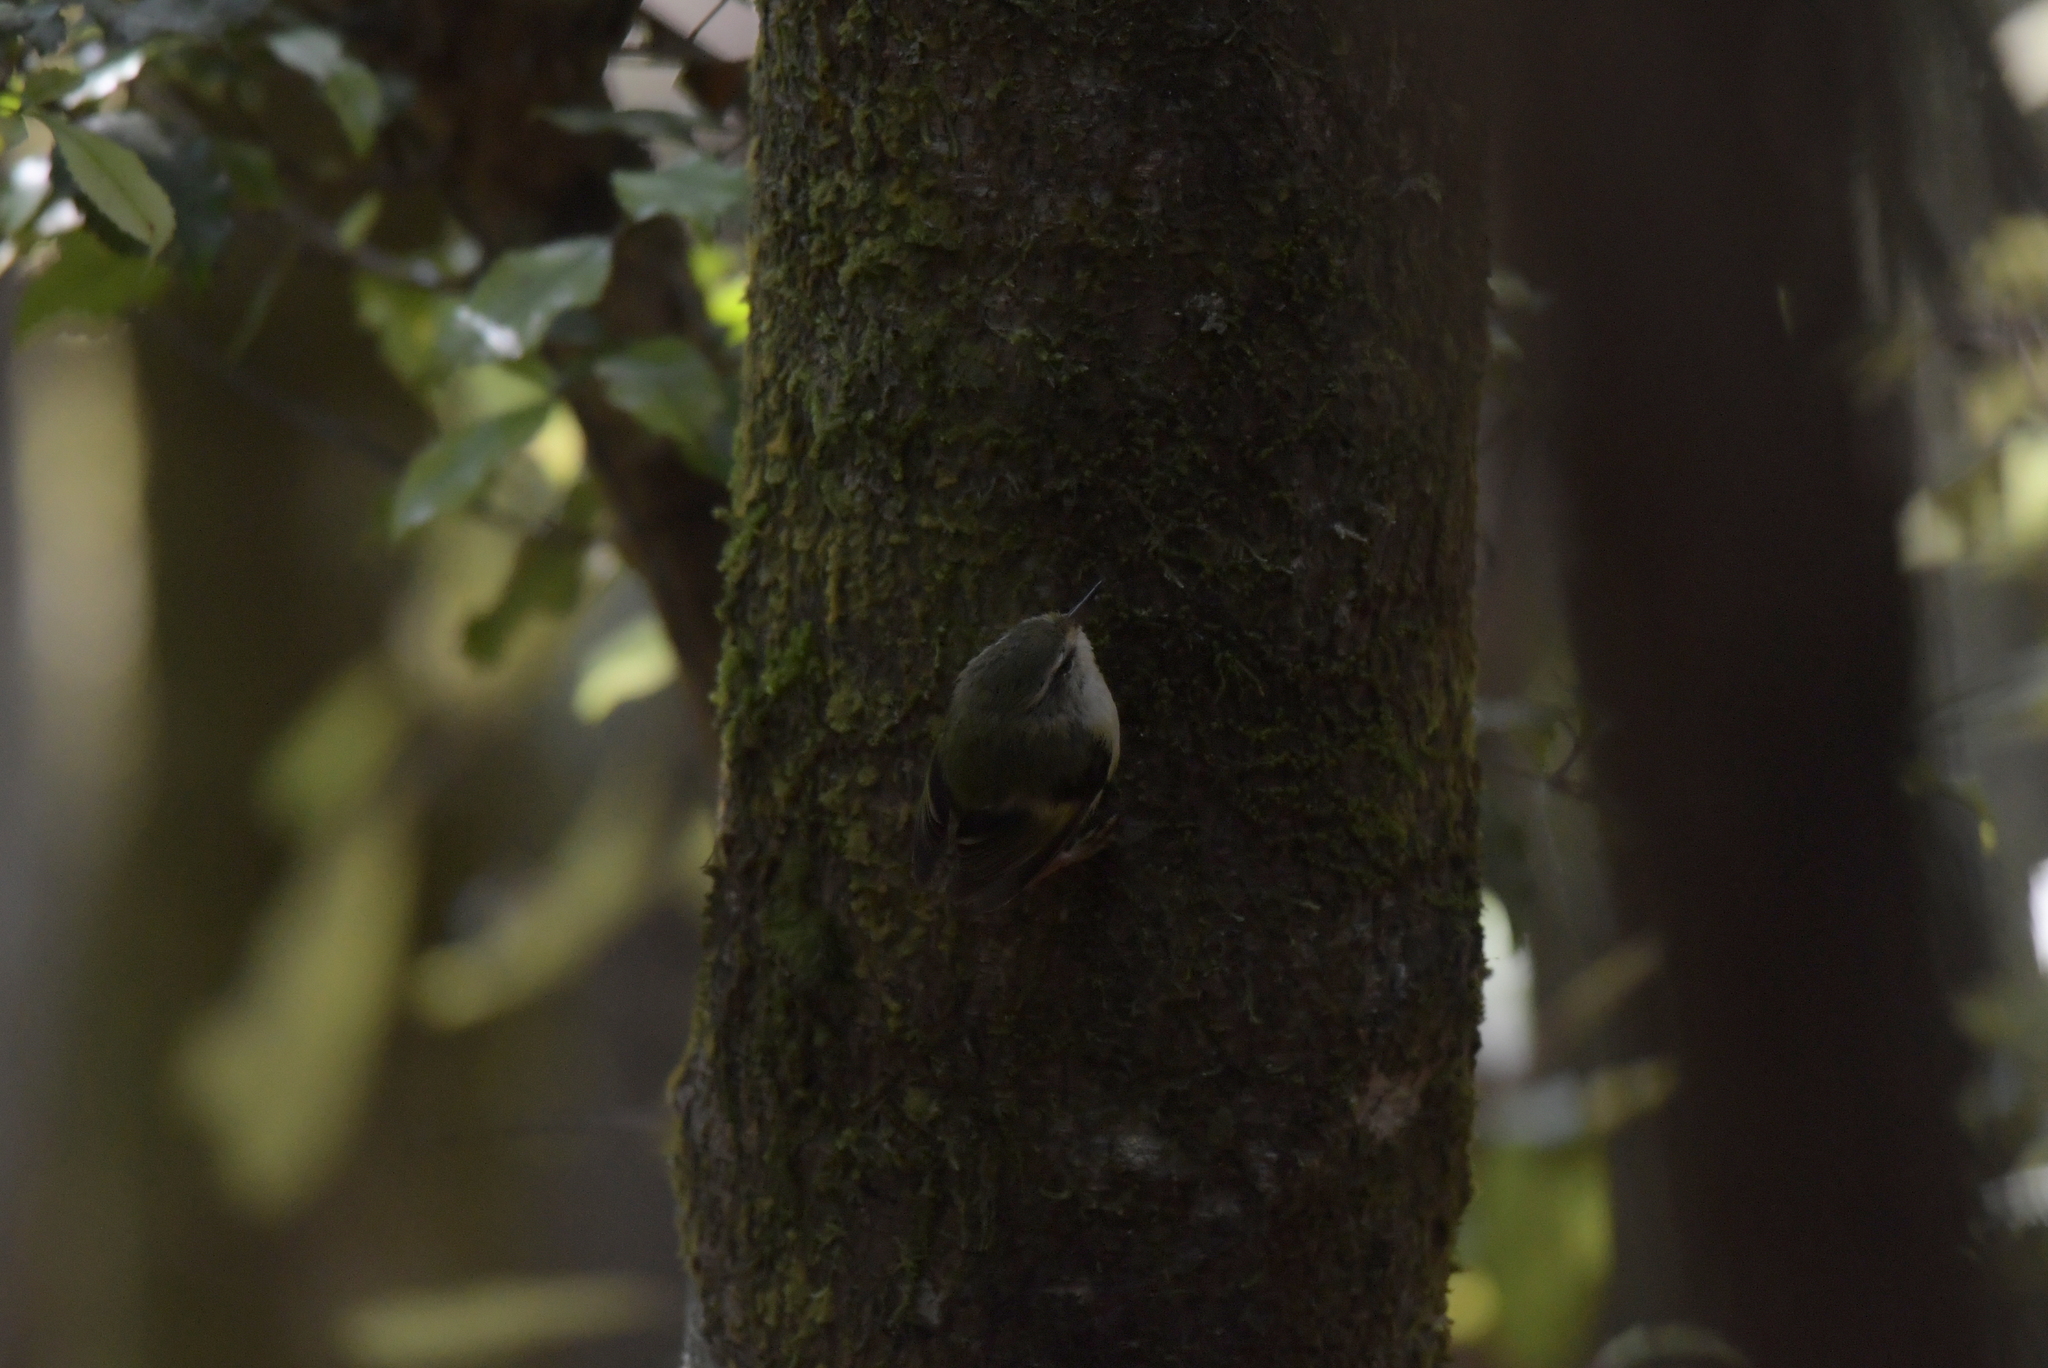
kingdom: Animalia
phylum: Chordata
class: Aves
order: Passeriformes
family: Acanthisittidae
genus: Acanthisitta
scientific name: Acanthisitta chloris
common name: Rifleman
